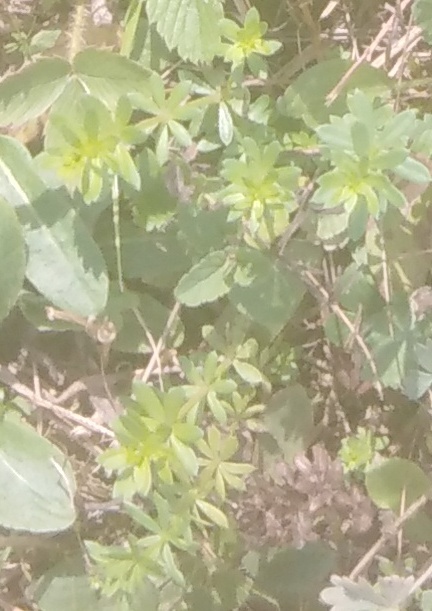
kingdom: Plantae
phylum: Tracheophyta
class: Magnoliopsida
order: Gentianales
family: Rubiaceae
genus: Galium
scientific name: Galium mollugo
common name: Hedge bedstraw
